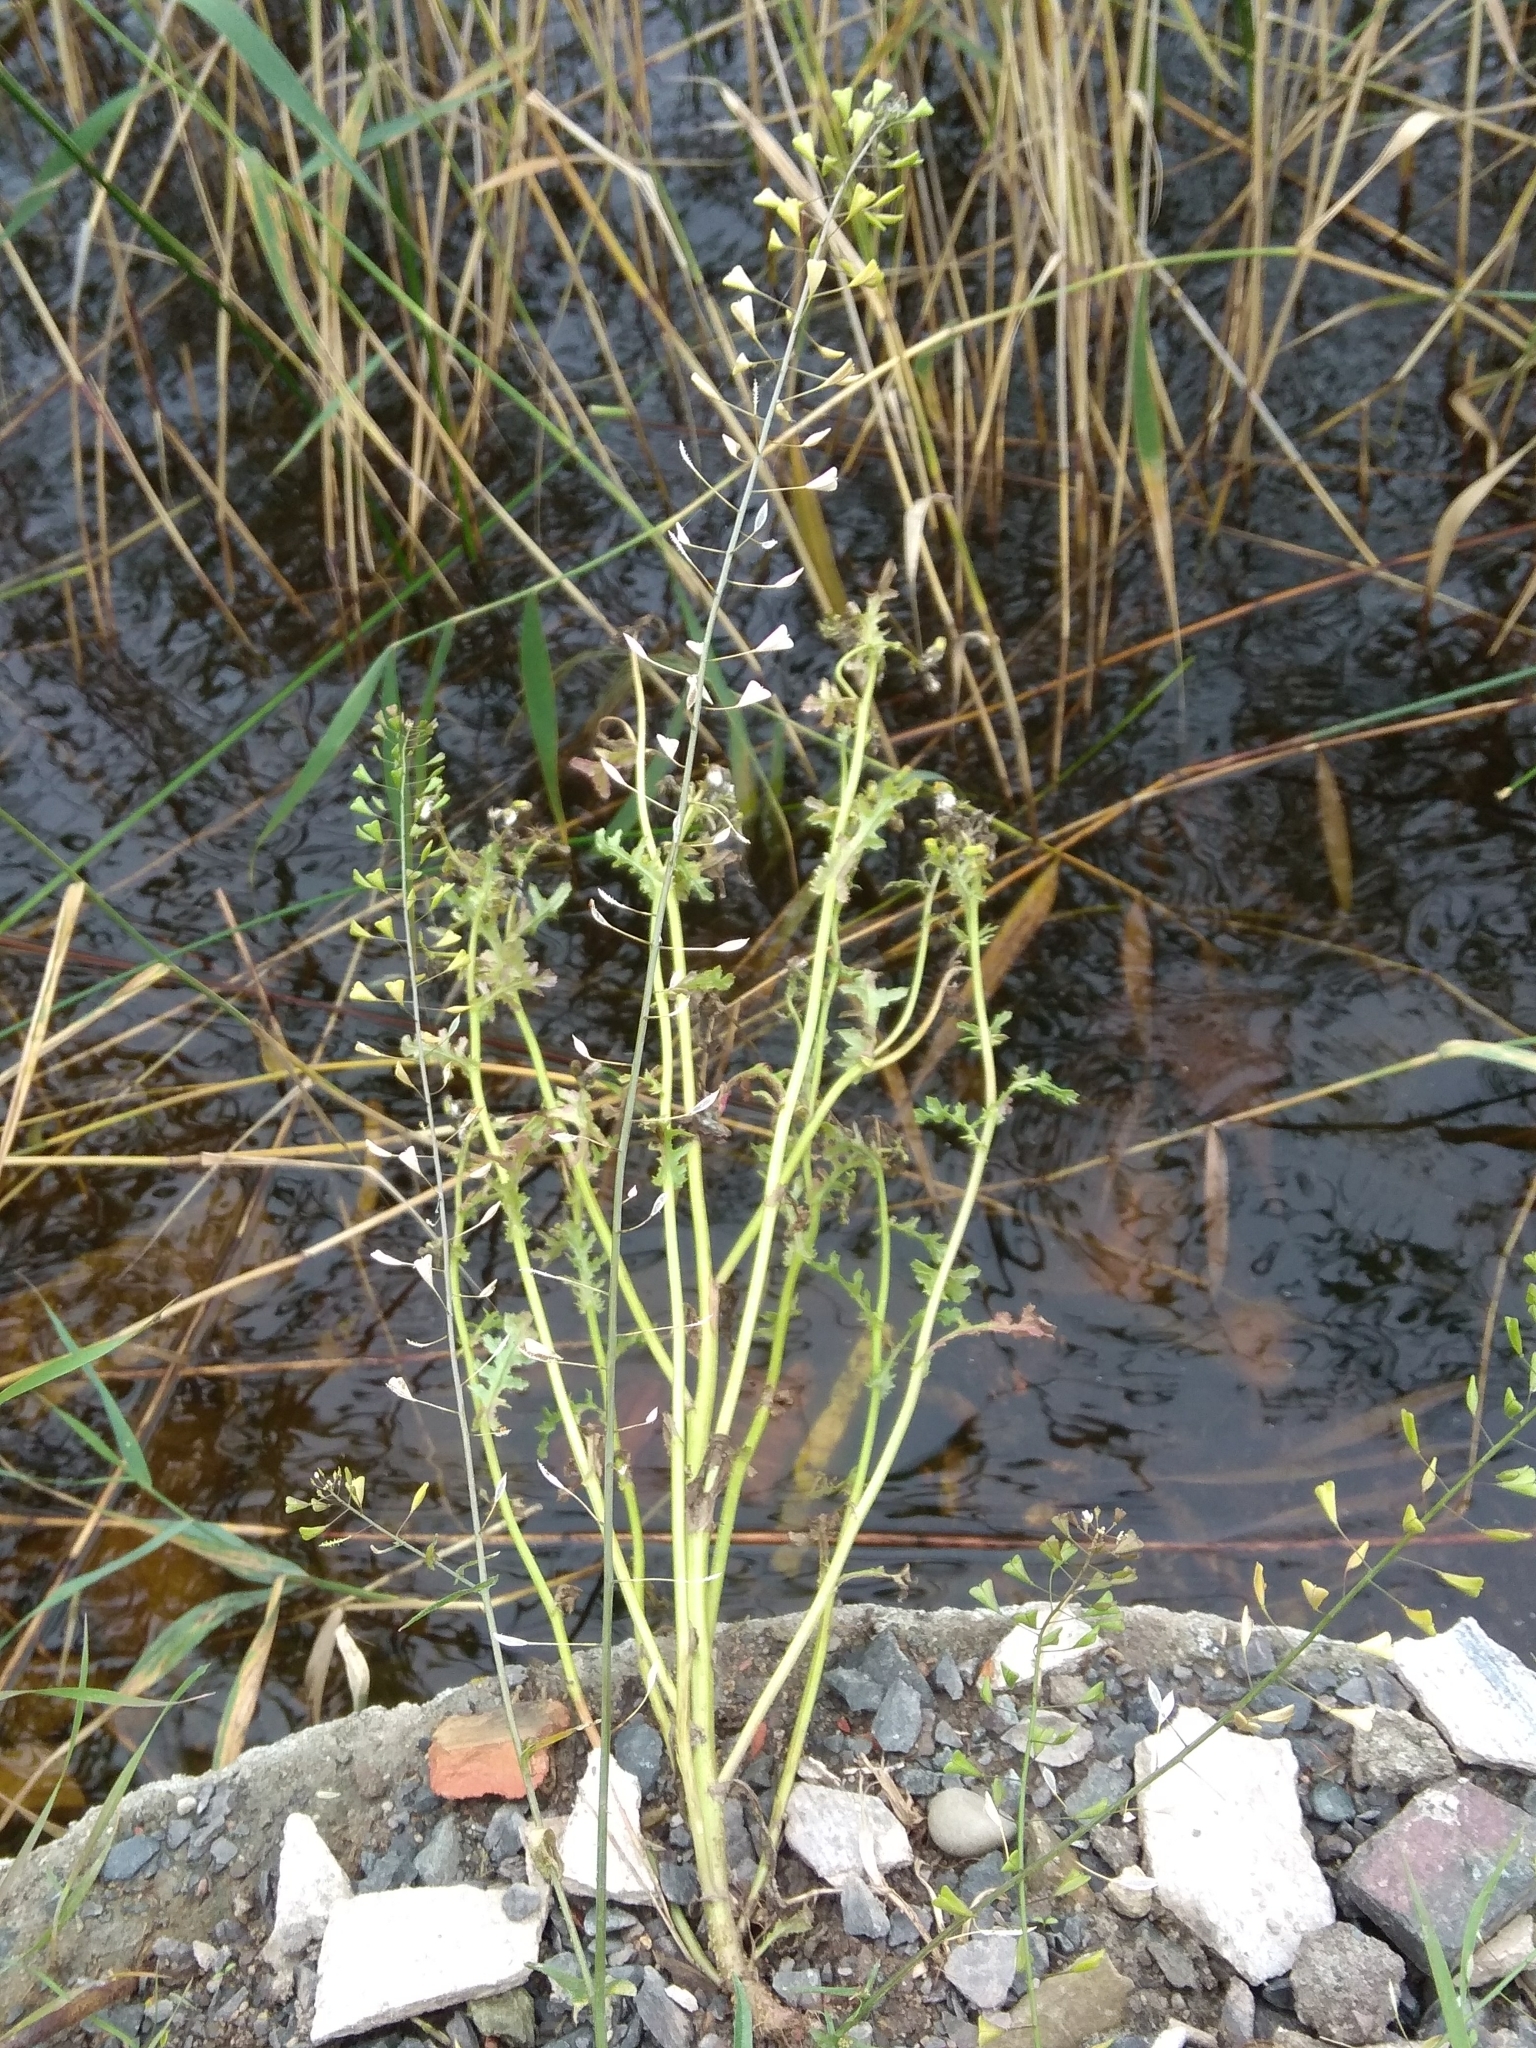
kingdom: Plantae
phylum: Tracheophyta
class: Magnoliopsida
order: Brassicales
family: Brassicaceae
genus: Capsella
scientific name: Capsella bursa-pastoris
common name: Shepherd's purse
